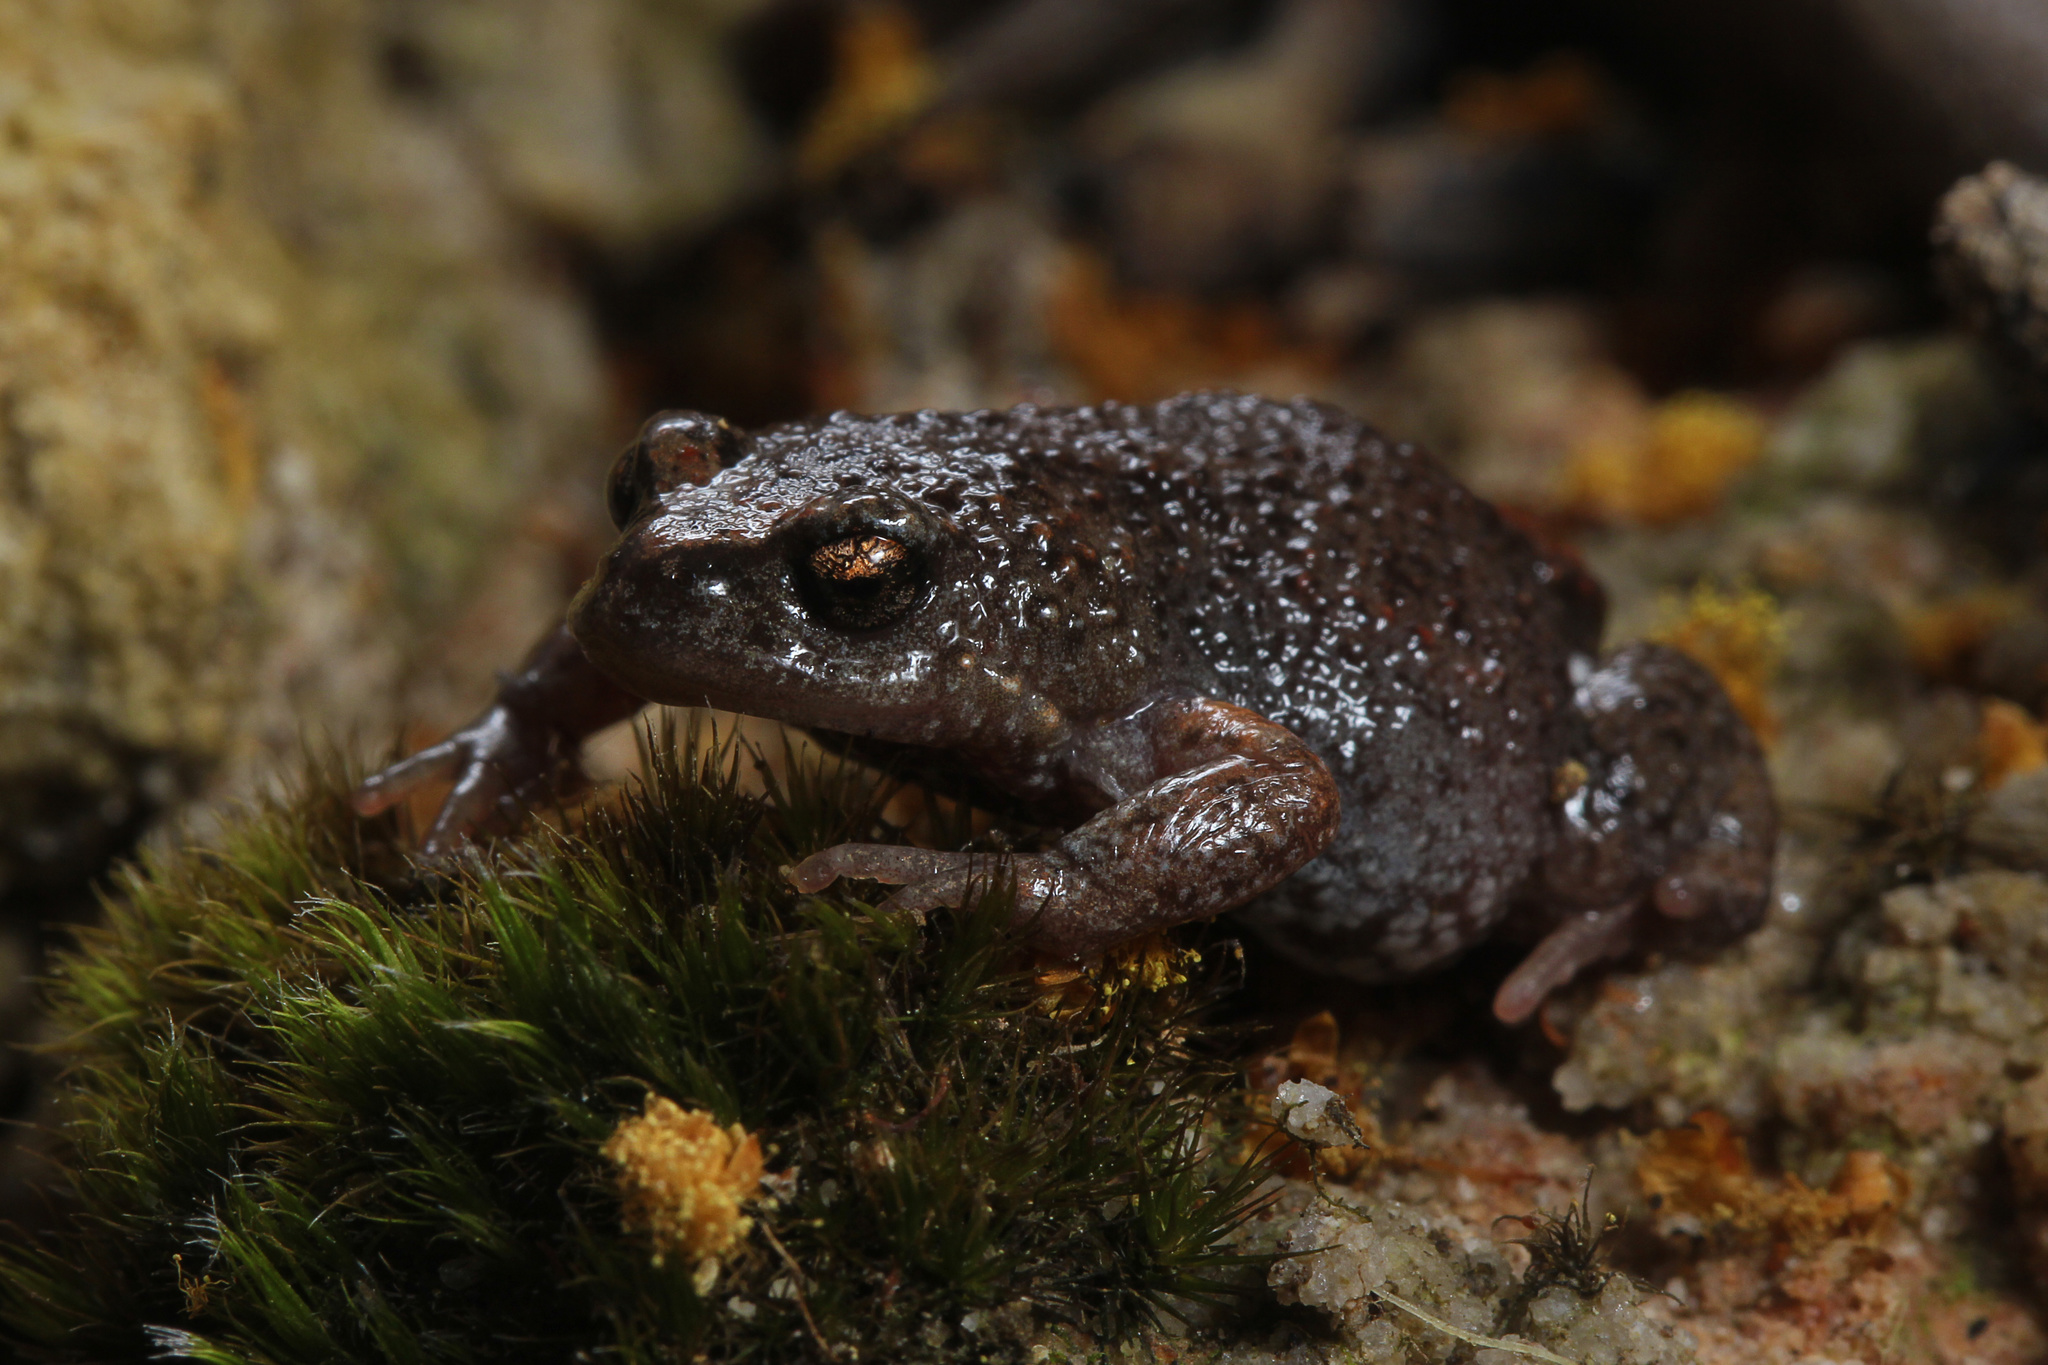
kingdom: Animalia
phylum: Chordata
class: Amphibia
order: Anura
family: Myobatrachidae
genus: Pseudophryne
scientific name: Pseudophryne bibronii
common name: Bibron’s toadlet
